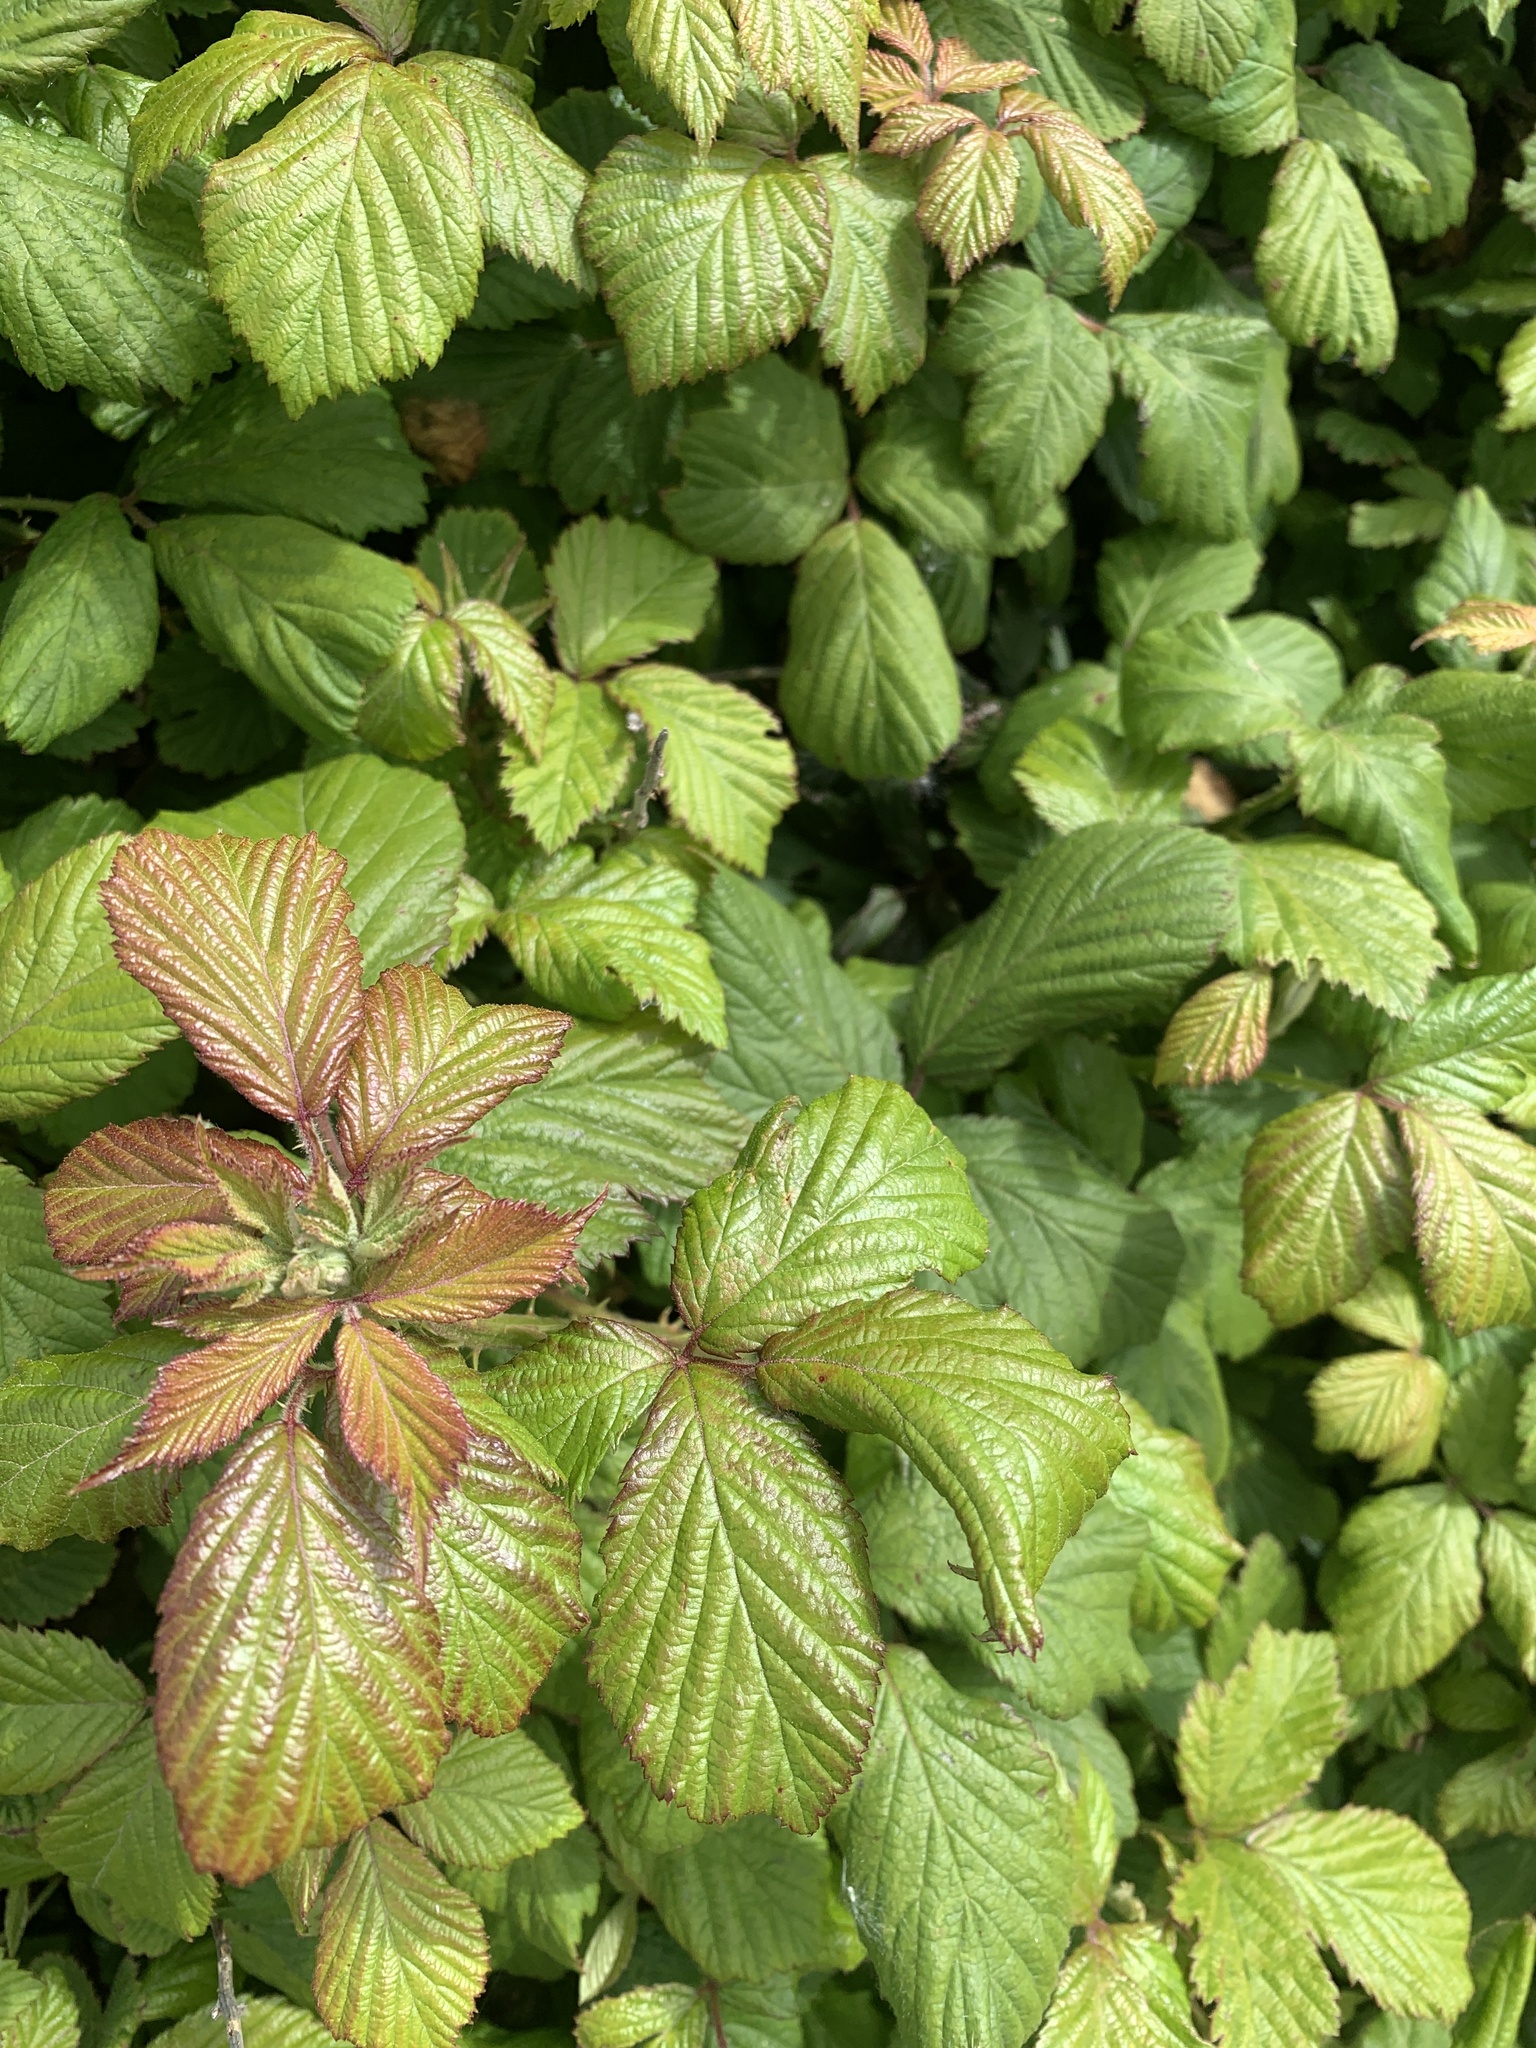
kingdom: Plantae
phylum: Tracheophyta
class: Magnoliopsida
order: Rosales
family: Rosaceae
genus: Rubus
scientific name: Rubus fruticosus
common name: Blackberry, bramble
